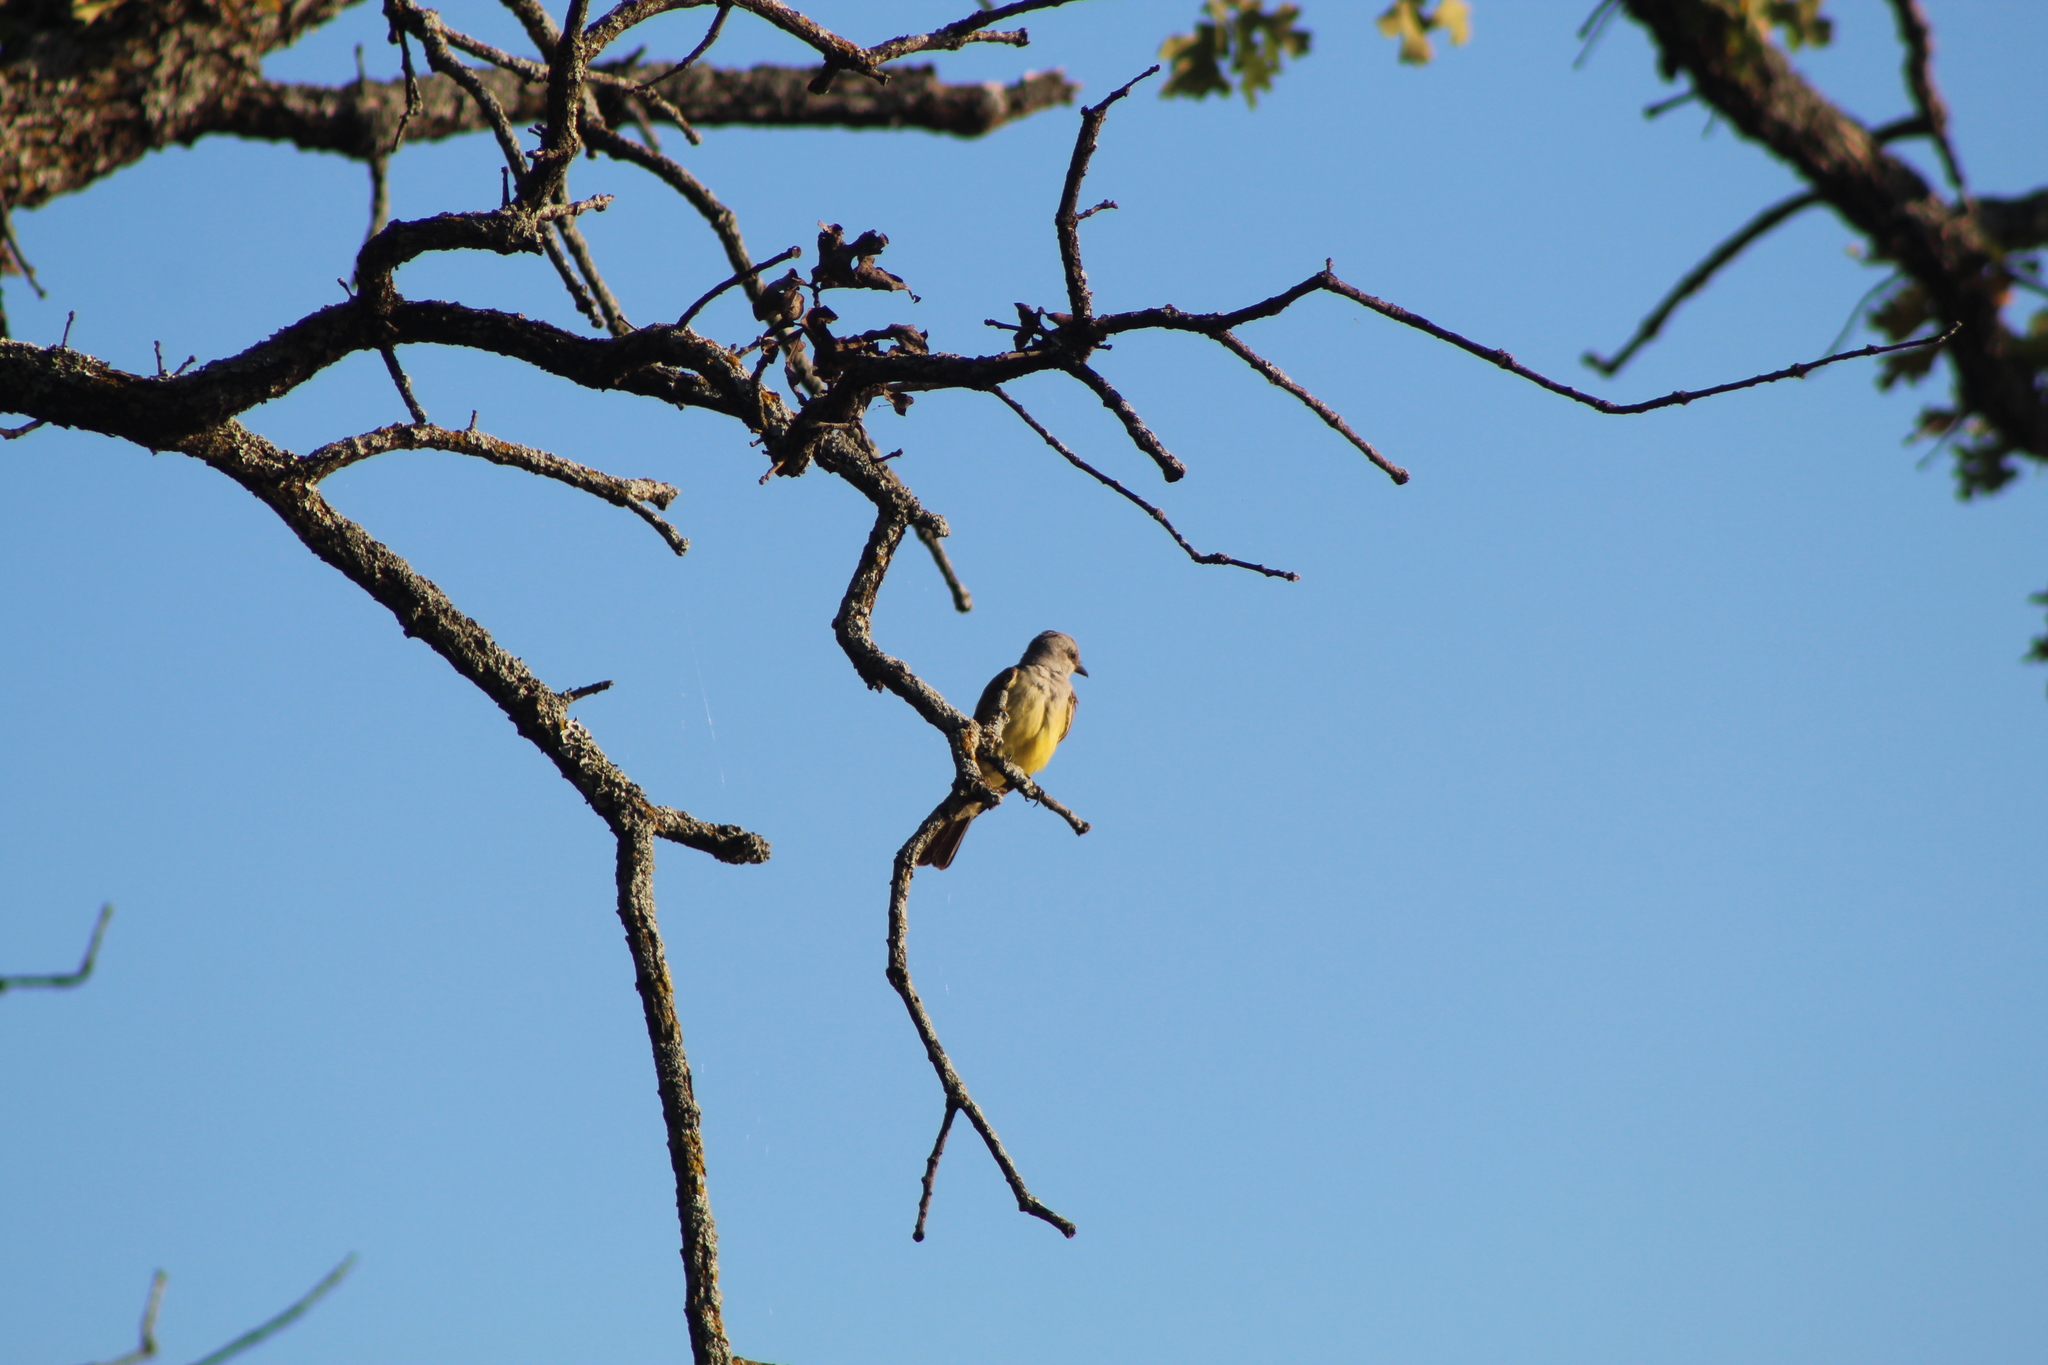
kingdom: Animalia
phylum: Chordata
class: Aves
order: Passeriformes
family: Tyrannidae
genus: Tyrannus
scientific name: Tyrannus verticalis
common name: Western kingbird
